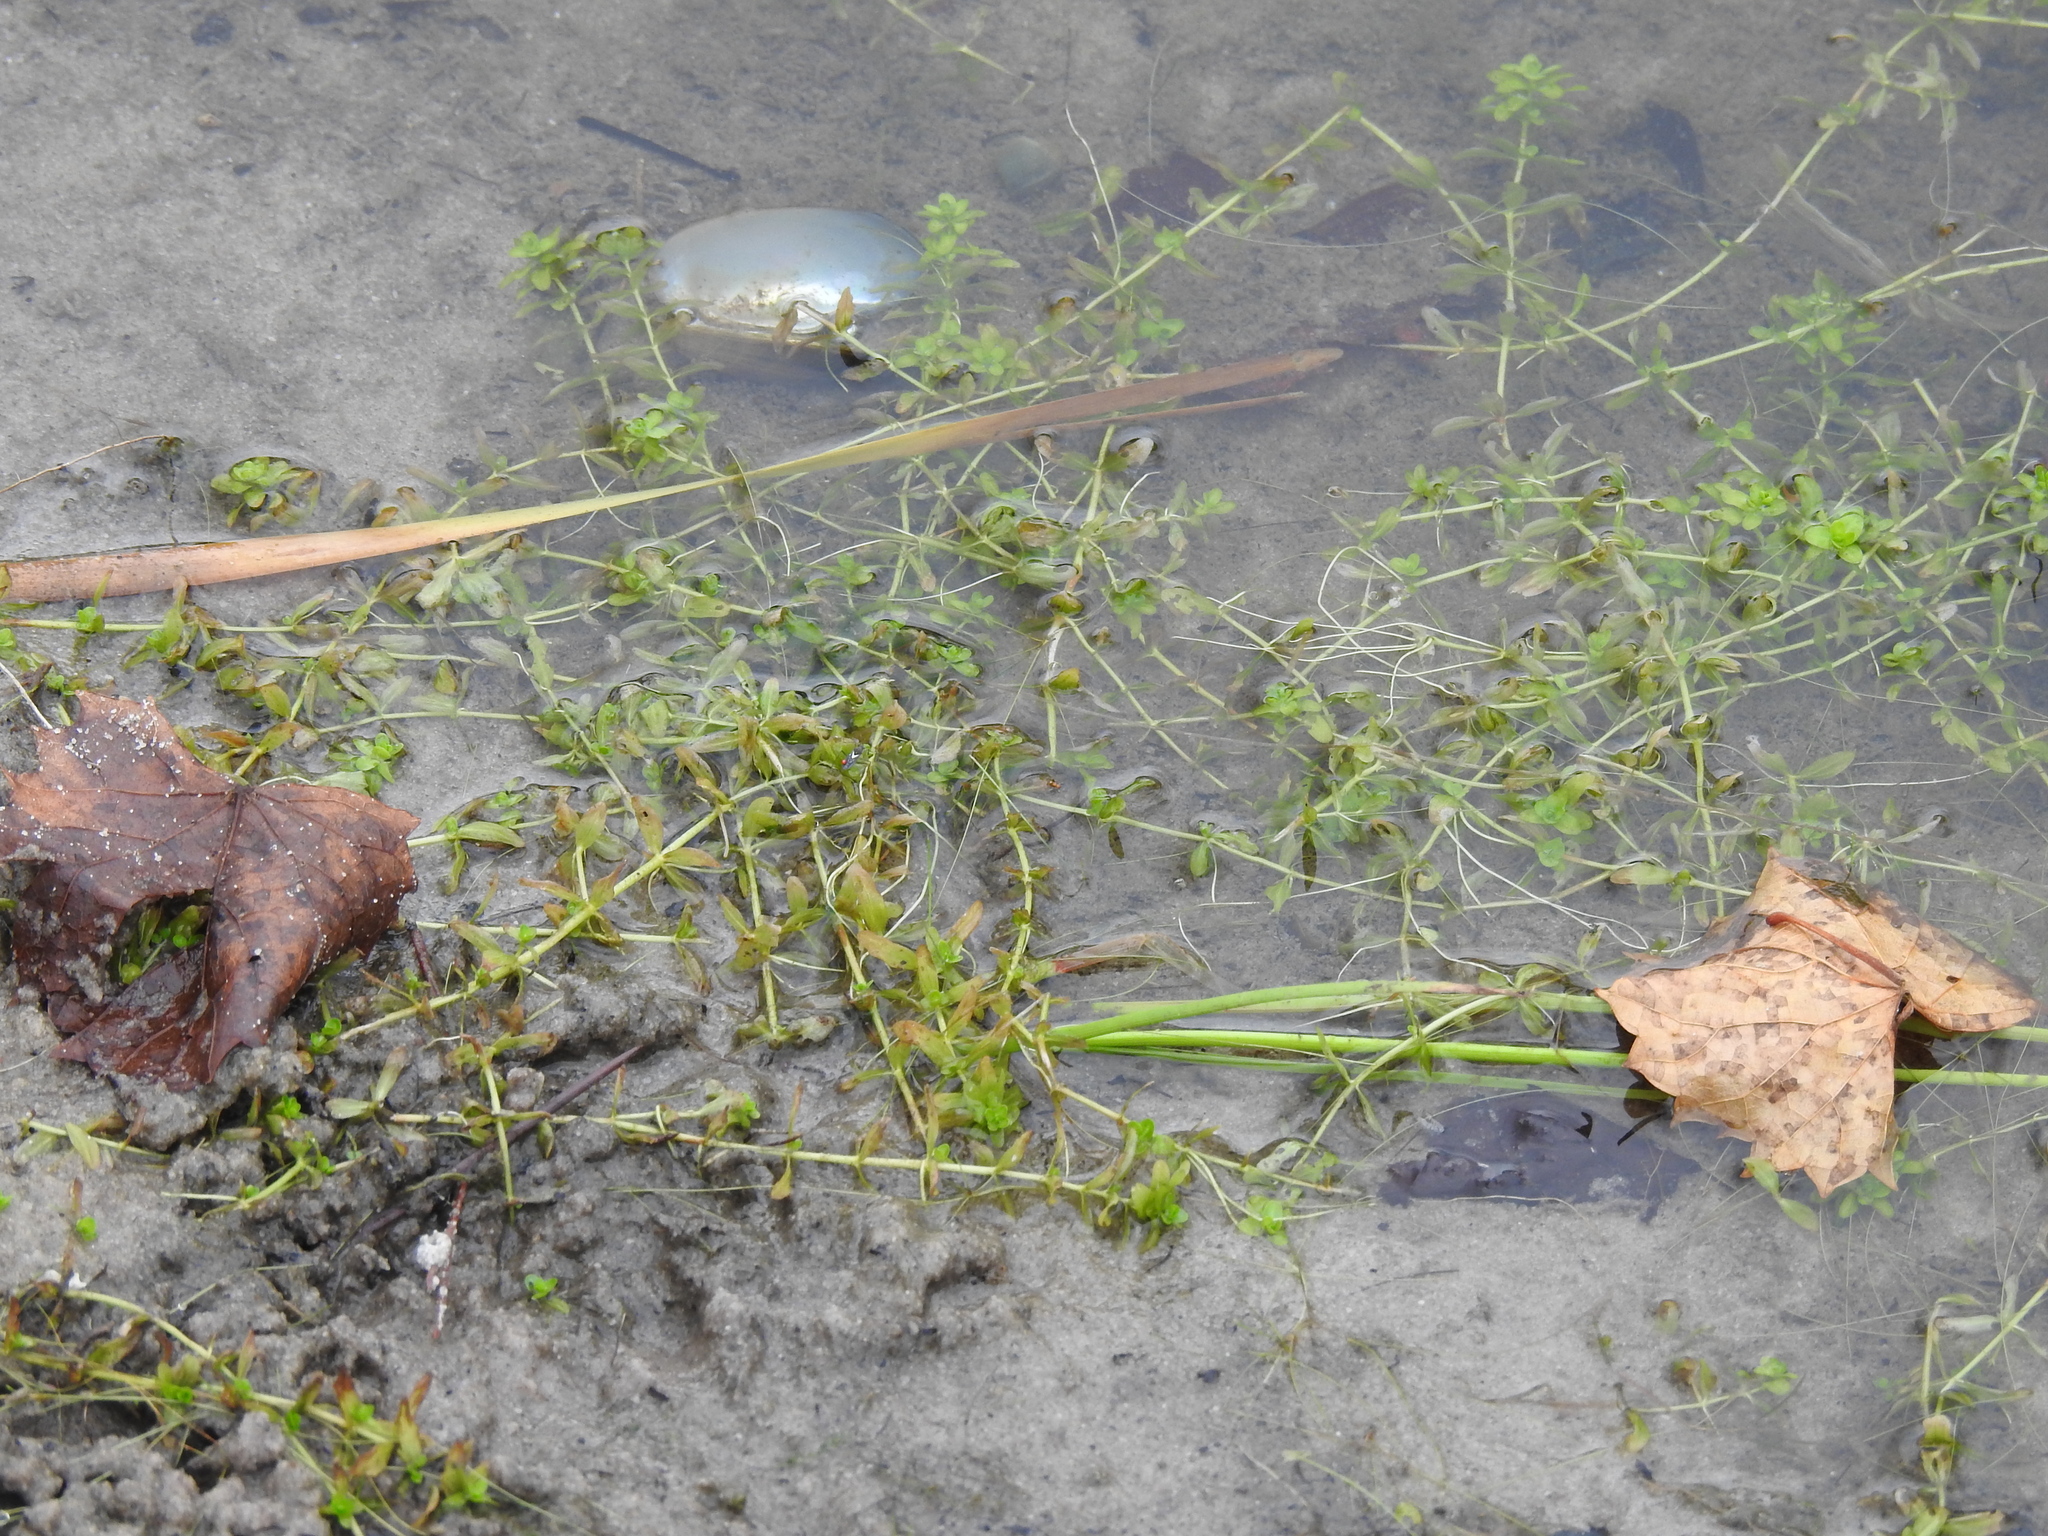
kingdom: Plantae
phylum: Tracheophyta
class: Magnoliopsida
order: Lamiales
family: Linderniaceae
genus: Micranthemum
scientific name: Micranthemum glomeratum
